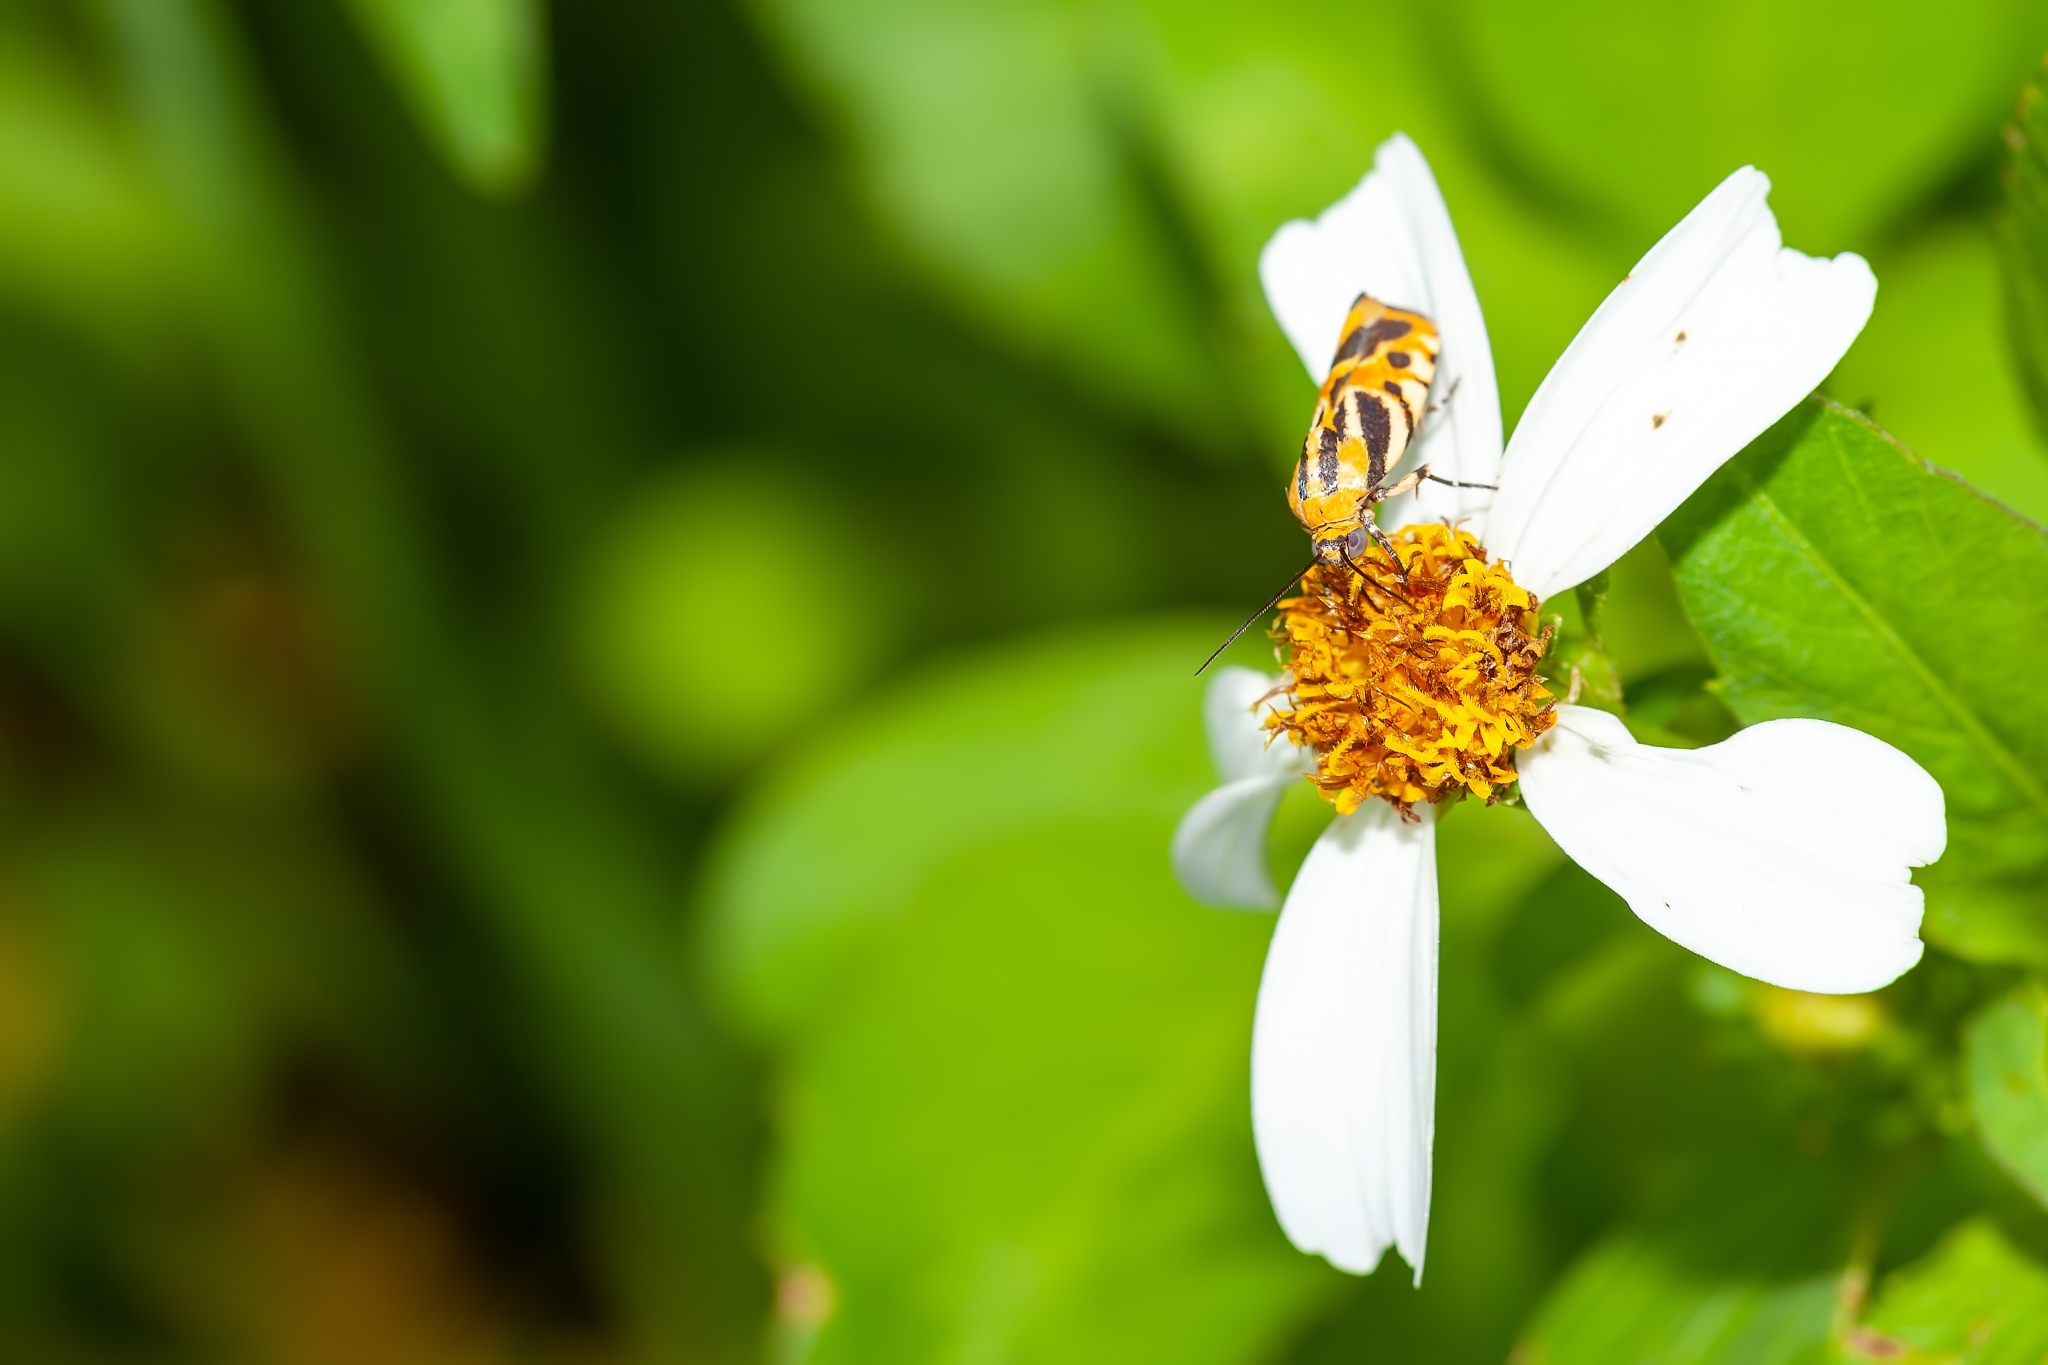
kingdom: Animalia
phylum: Arthropoda
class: Insecta
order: Lepidoptera
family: Noctuidae
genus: Acontia
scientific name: Acontia onagrus
